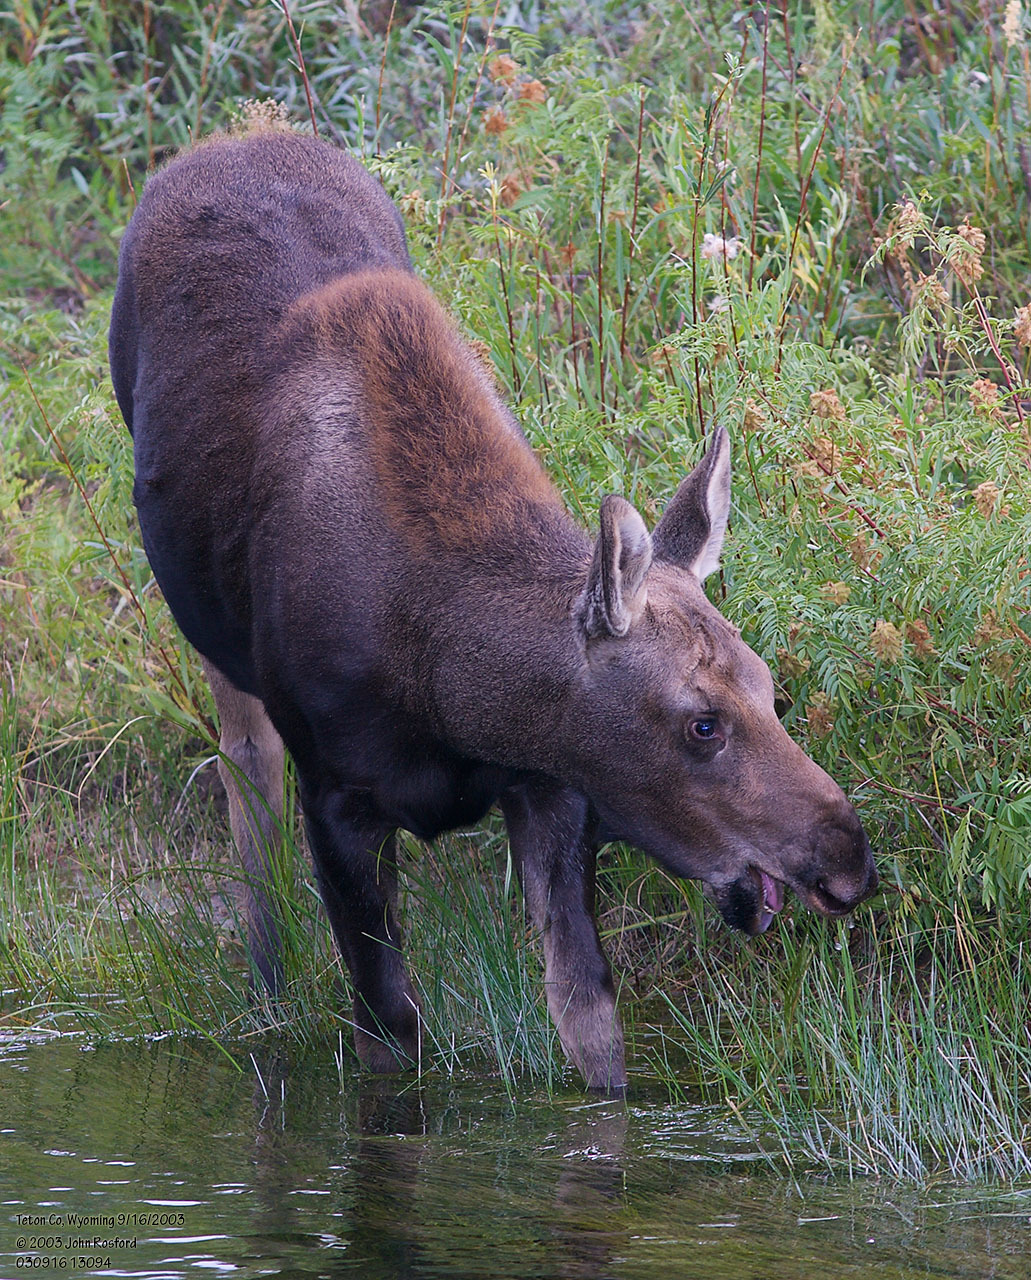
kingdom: Animalia
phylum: Chordata
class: Mammalia
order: Artiodactyla
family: Cervidae
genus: Alces
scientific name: Alces americanus
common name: Moose
